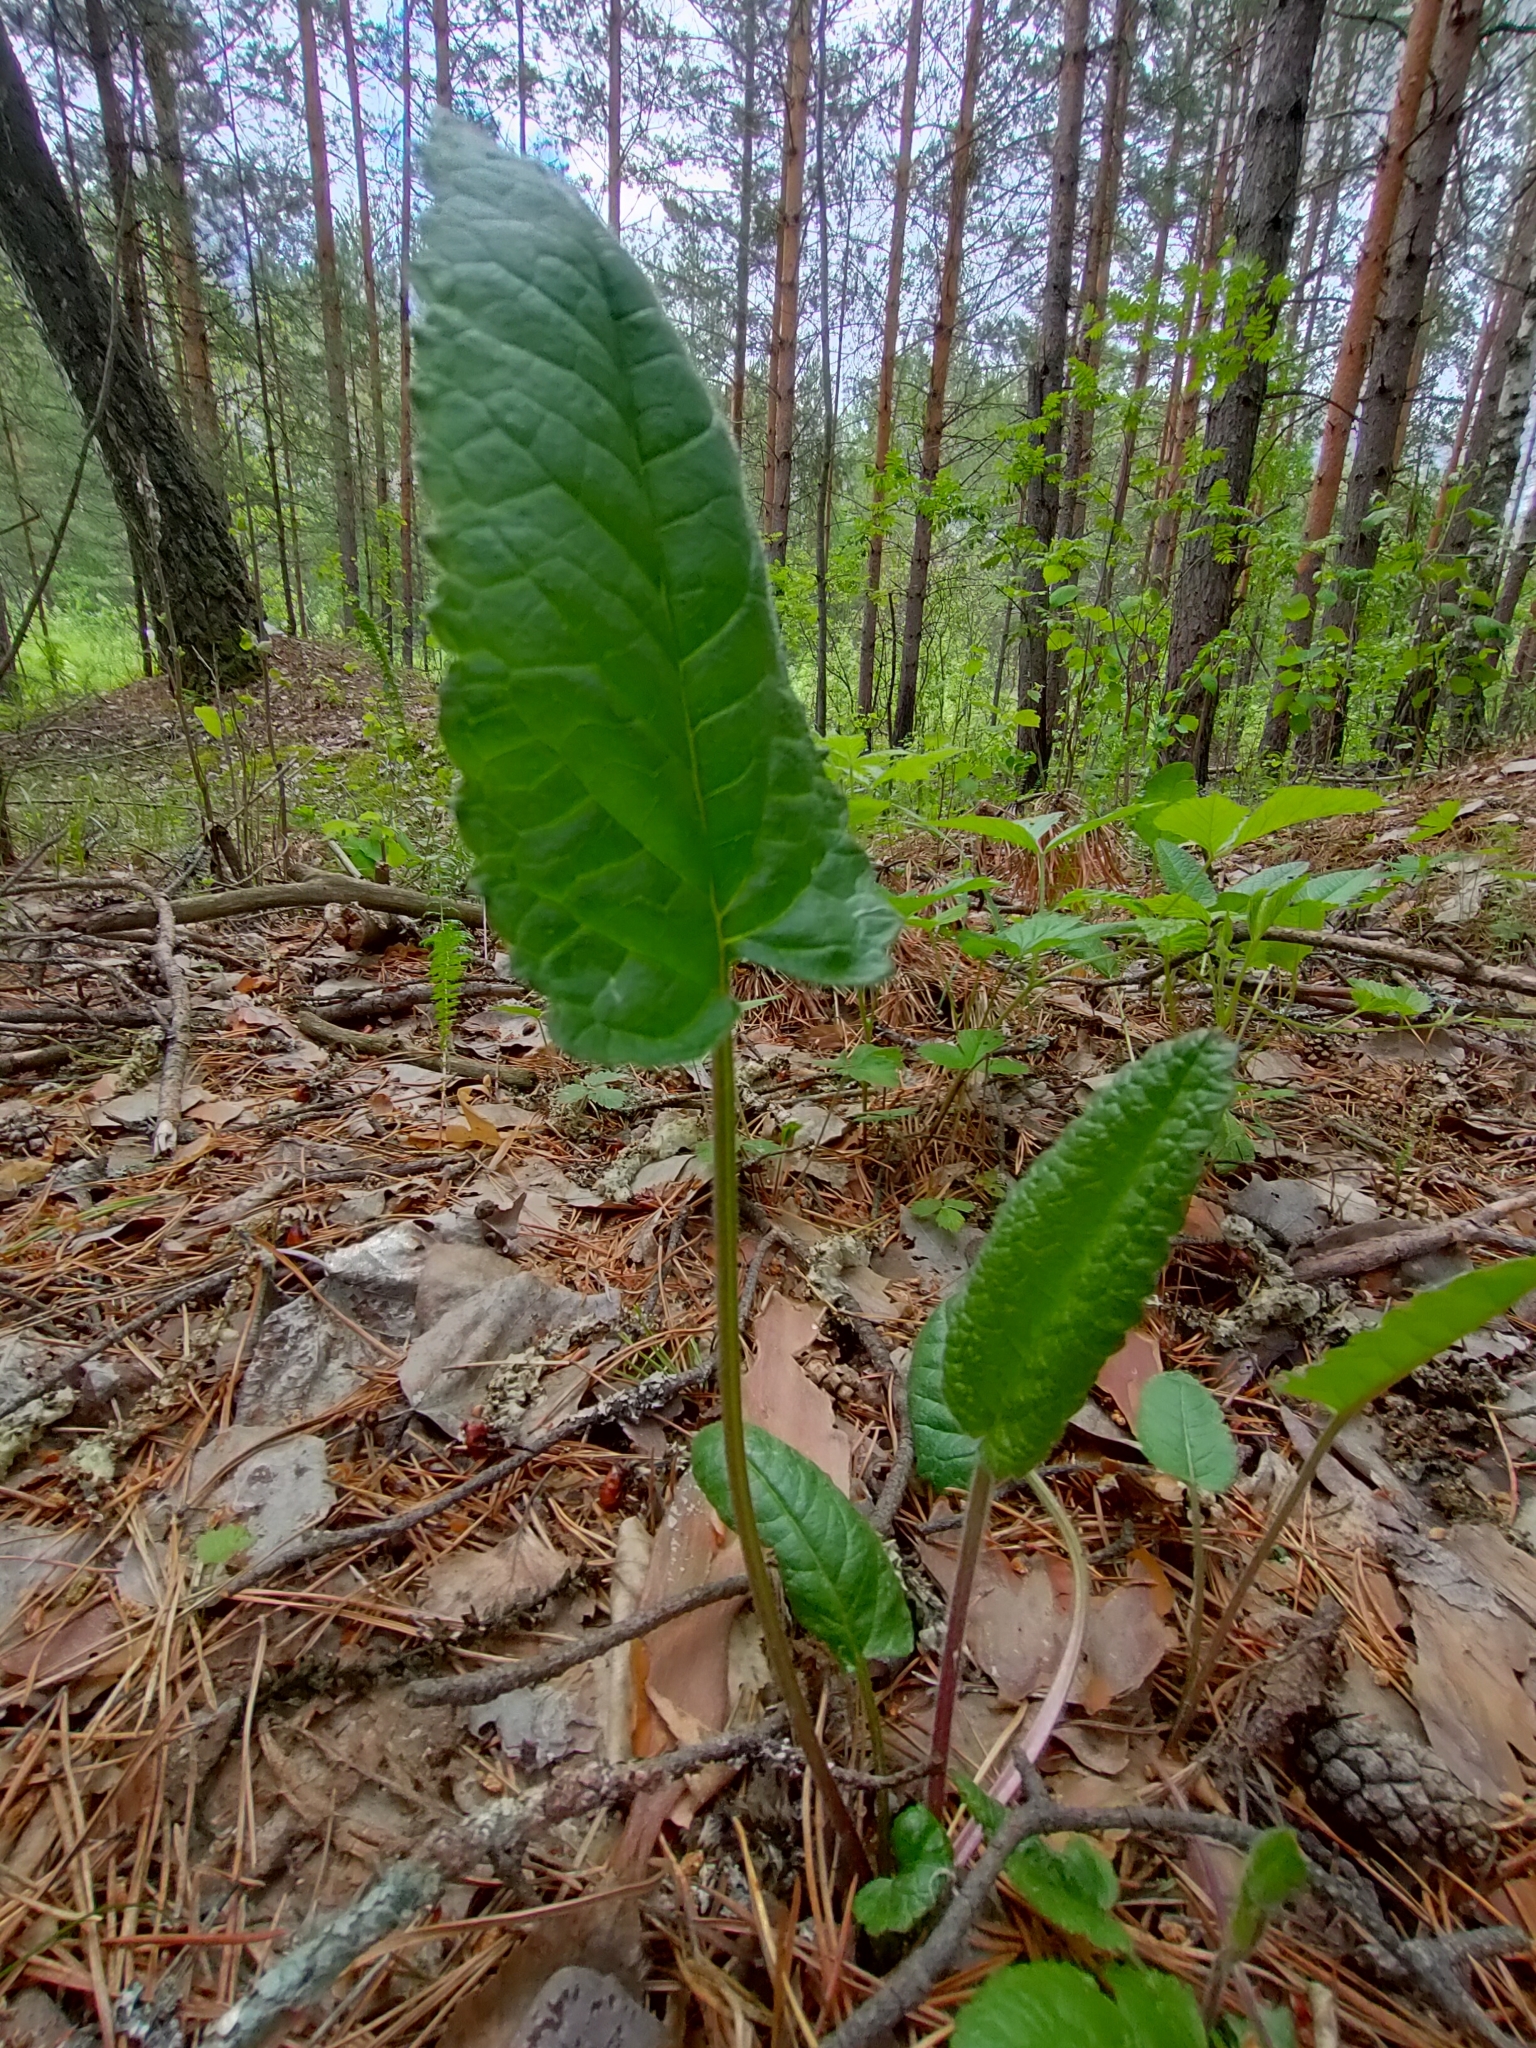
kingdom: Plantae
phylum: Tracheophyta
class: Magnoliopsida
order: Lamiales
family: Lamiaceae
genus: Betonica
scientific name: Betonica officinalis
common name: Bishop's-wort
